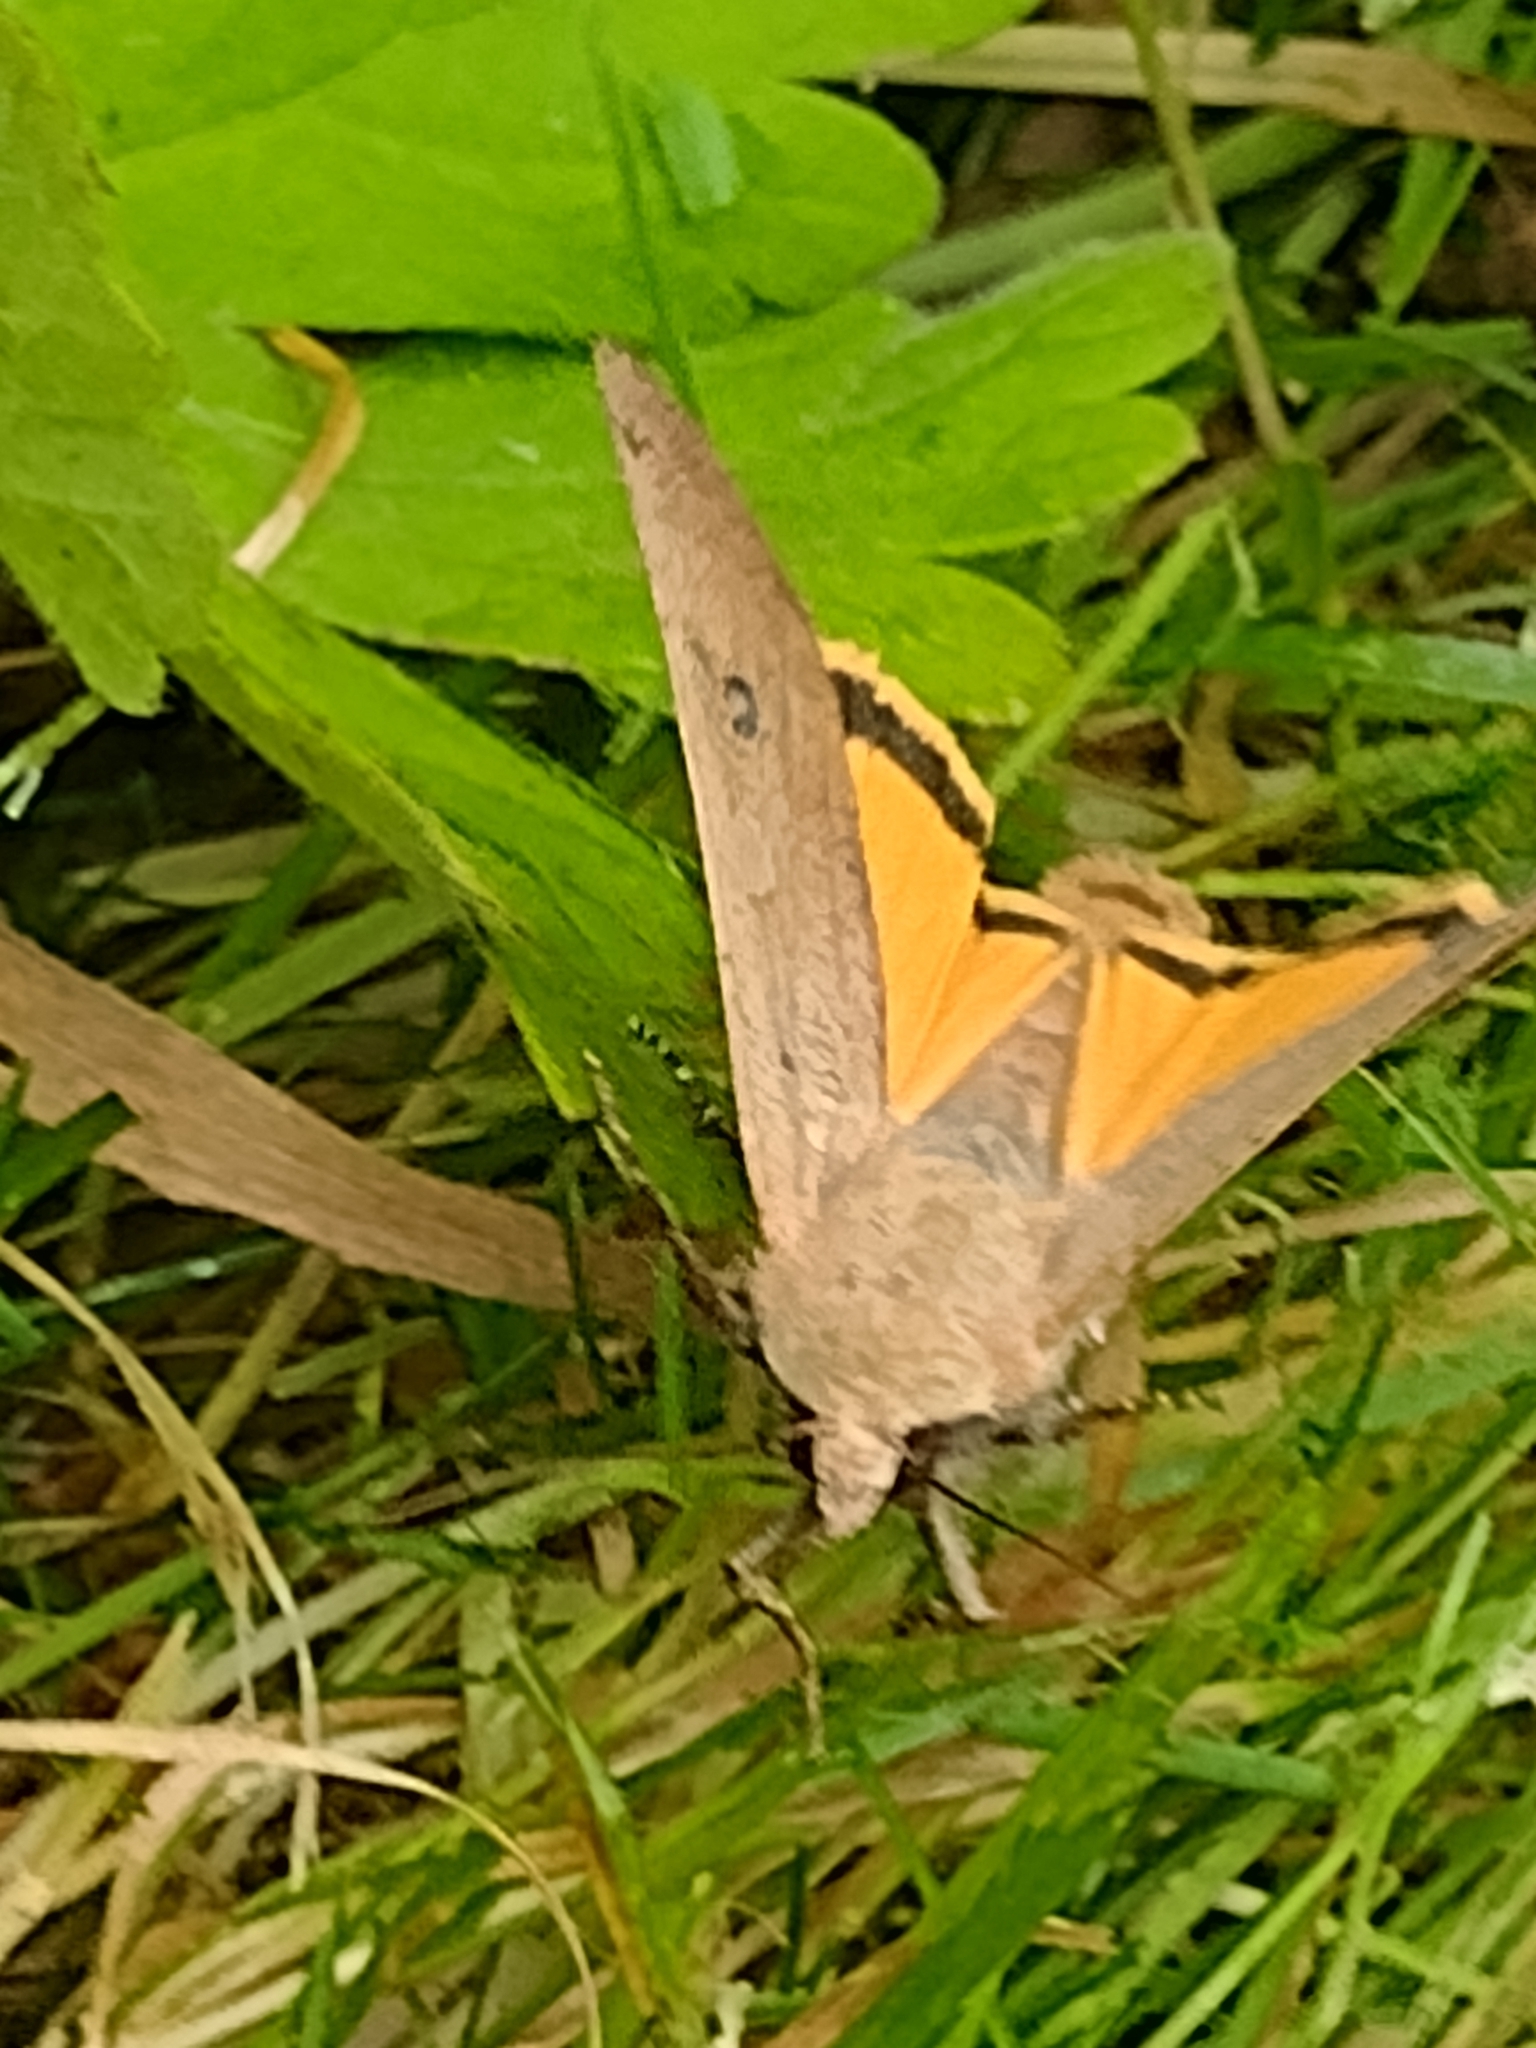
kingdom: Animalia
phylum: Arthropoda
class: Insecta
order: Lepidoptera
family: Noctuidae
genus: Noctua
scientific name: Noctua pronuba
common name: Large yellow underwing
